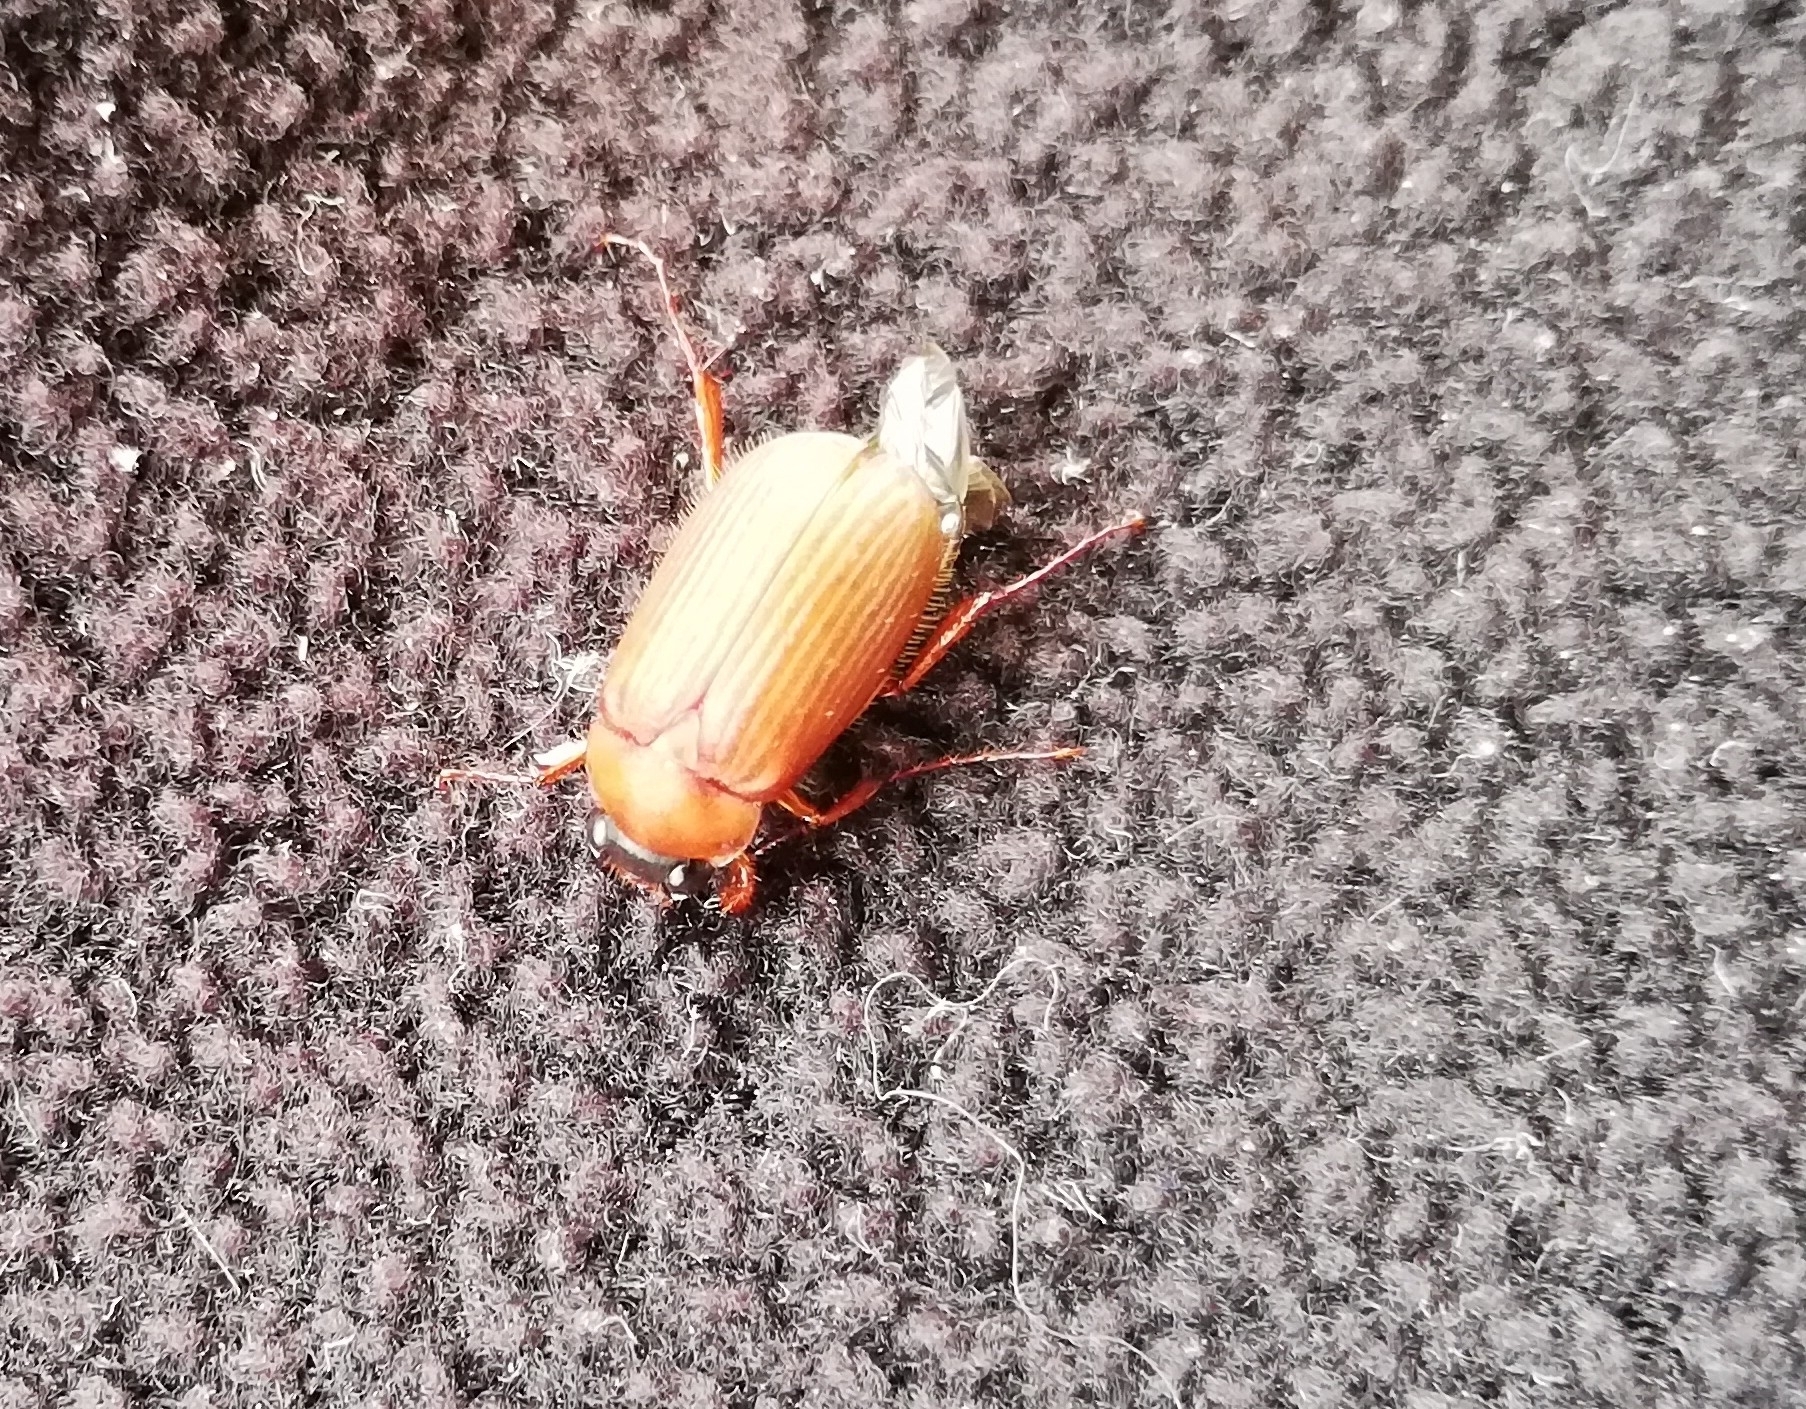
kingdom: Animalia
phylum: Arthropoda
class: Insecta
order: Coleoptera
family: Scarabaeidae
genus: Serica
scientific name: Serica brunnea
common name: Brown chafer
